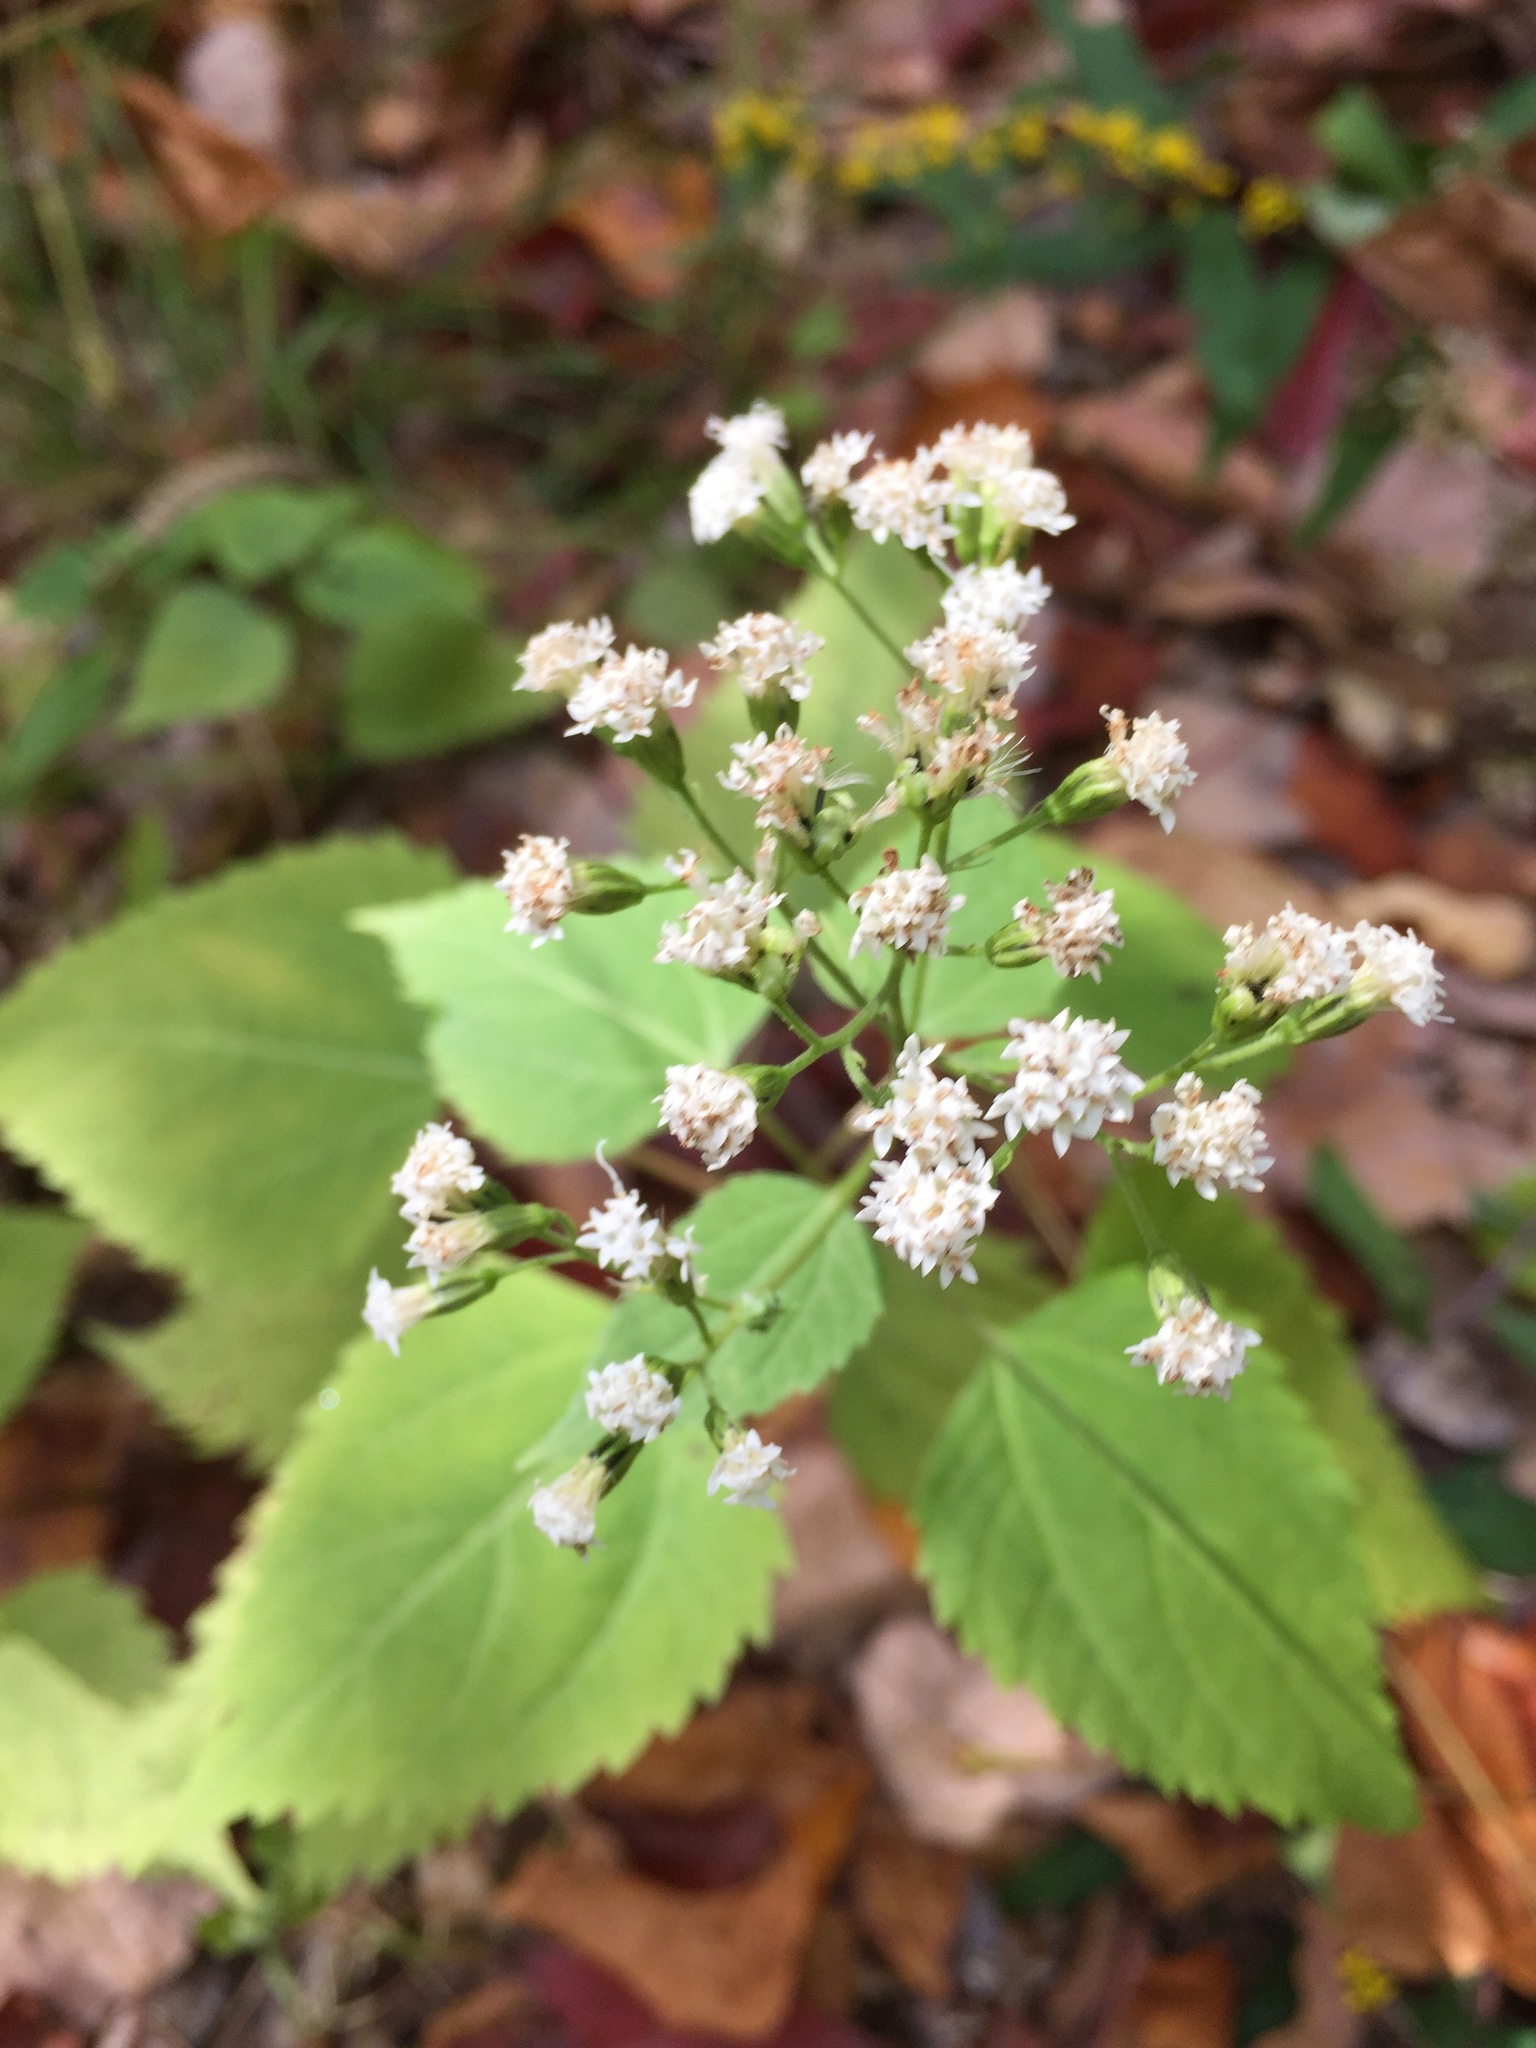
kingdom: Plantae
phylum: Tracheophyta
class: Magnoliopsida
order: Asterales
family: Asteraceae
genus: Ageratina
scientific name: Ageratina altissima
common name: White snakeroot
